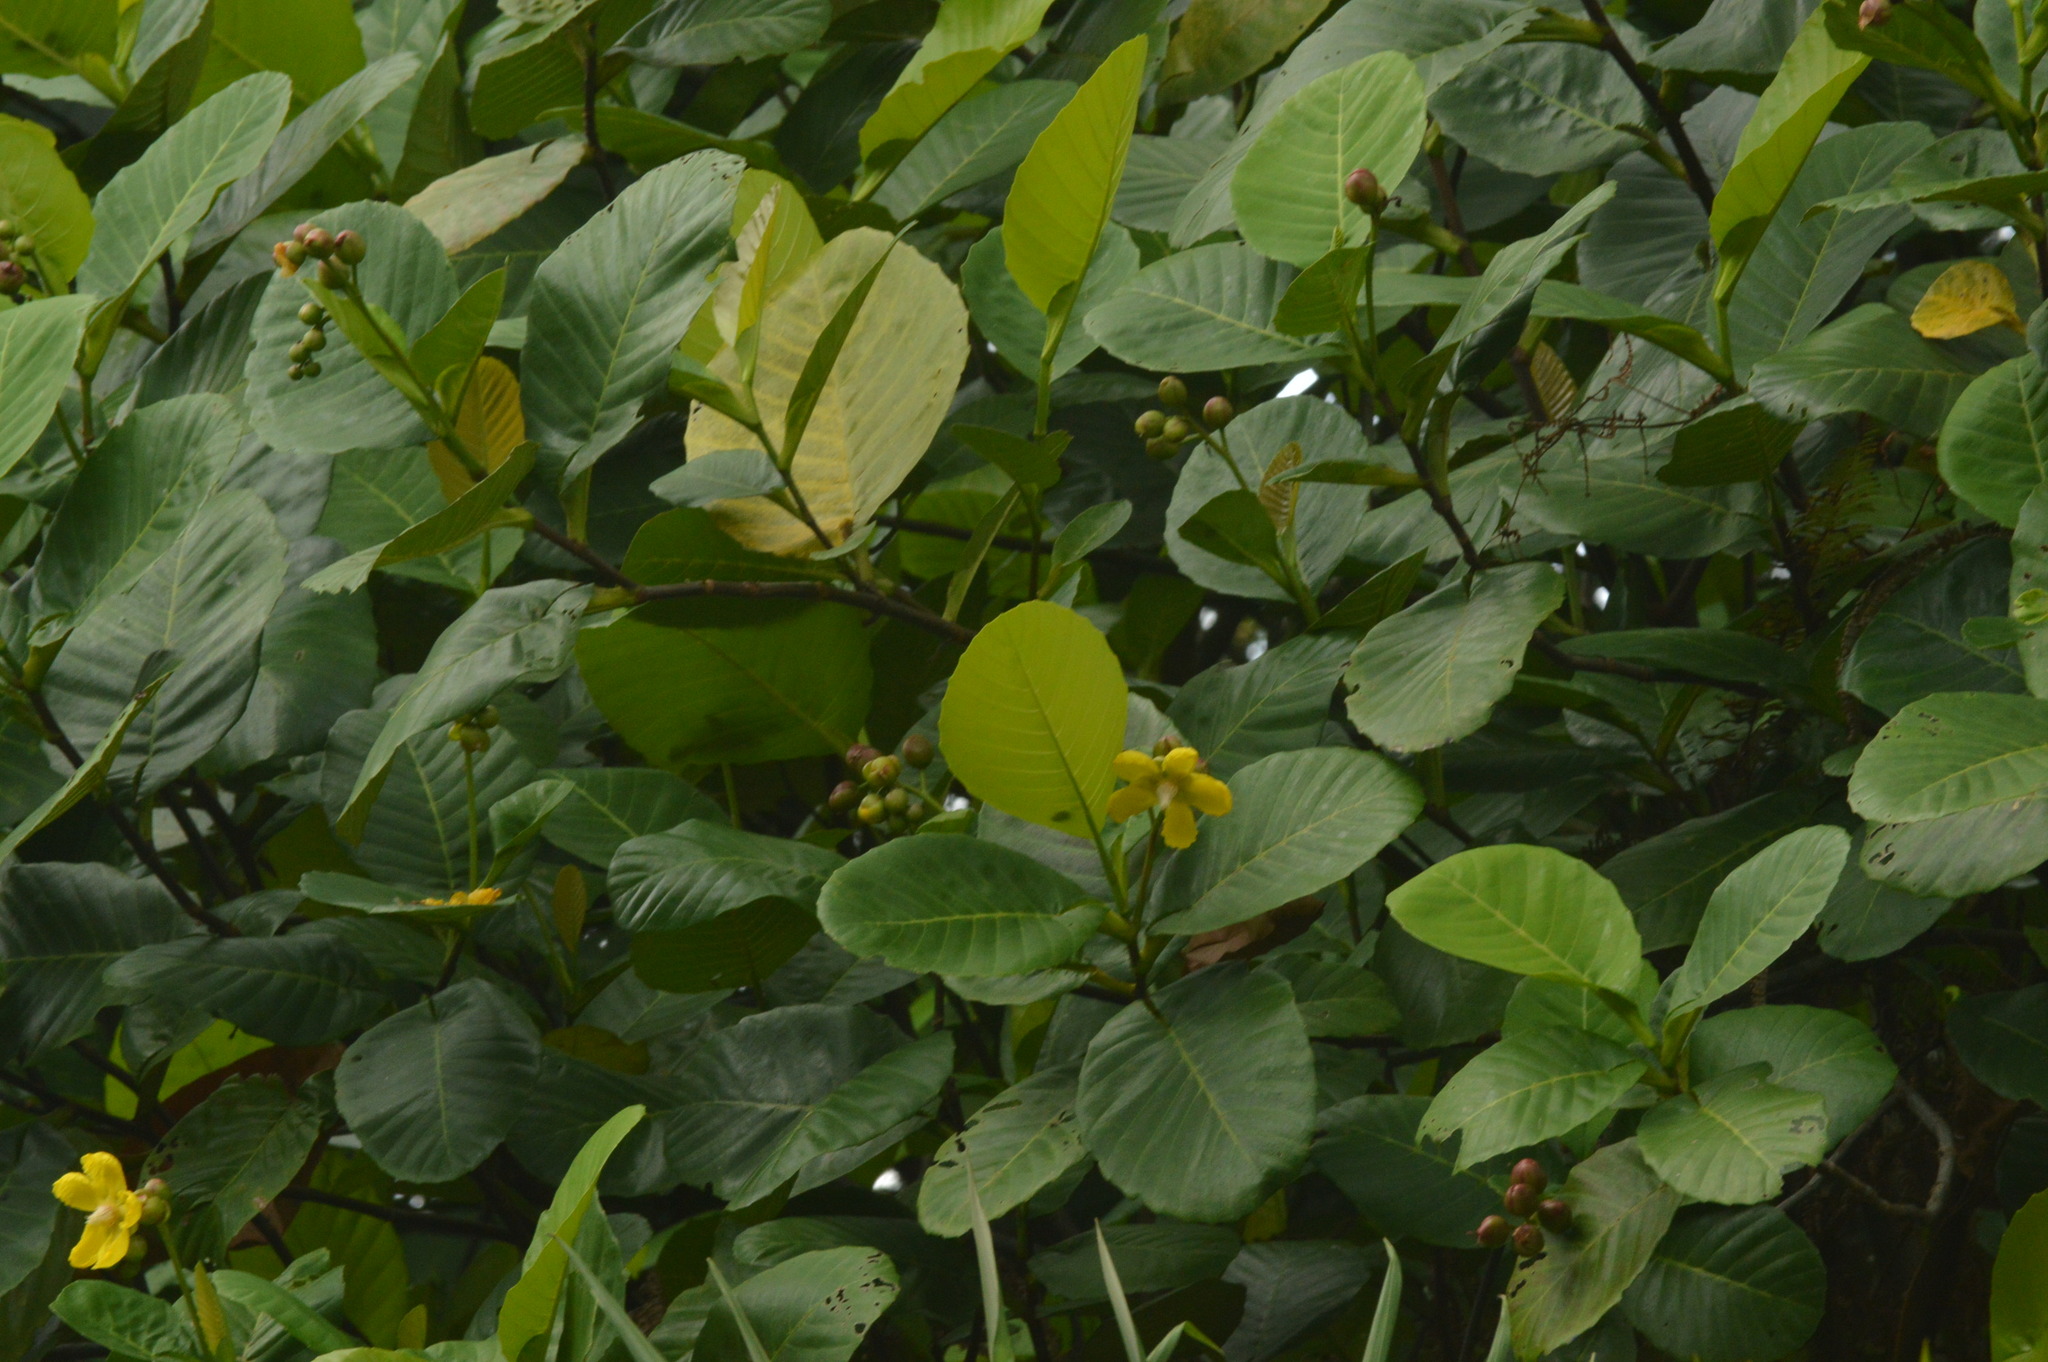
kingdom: Plantae
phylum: Tracheophyta
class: Magnoliopsida
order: Dilleniales
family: Dilleniaceae
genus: Dillenia
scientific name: Dillenia suffruticosa
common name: Shrubby dillenia
